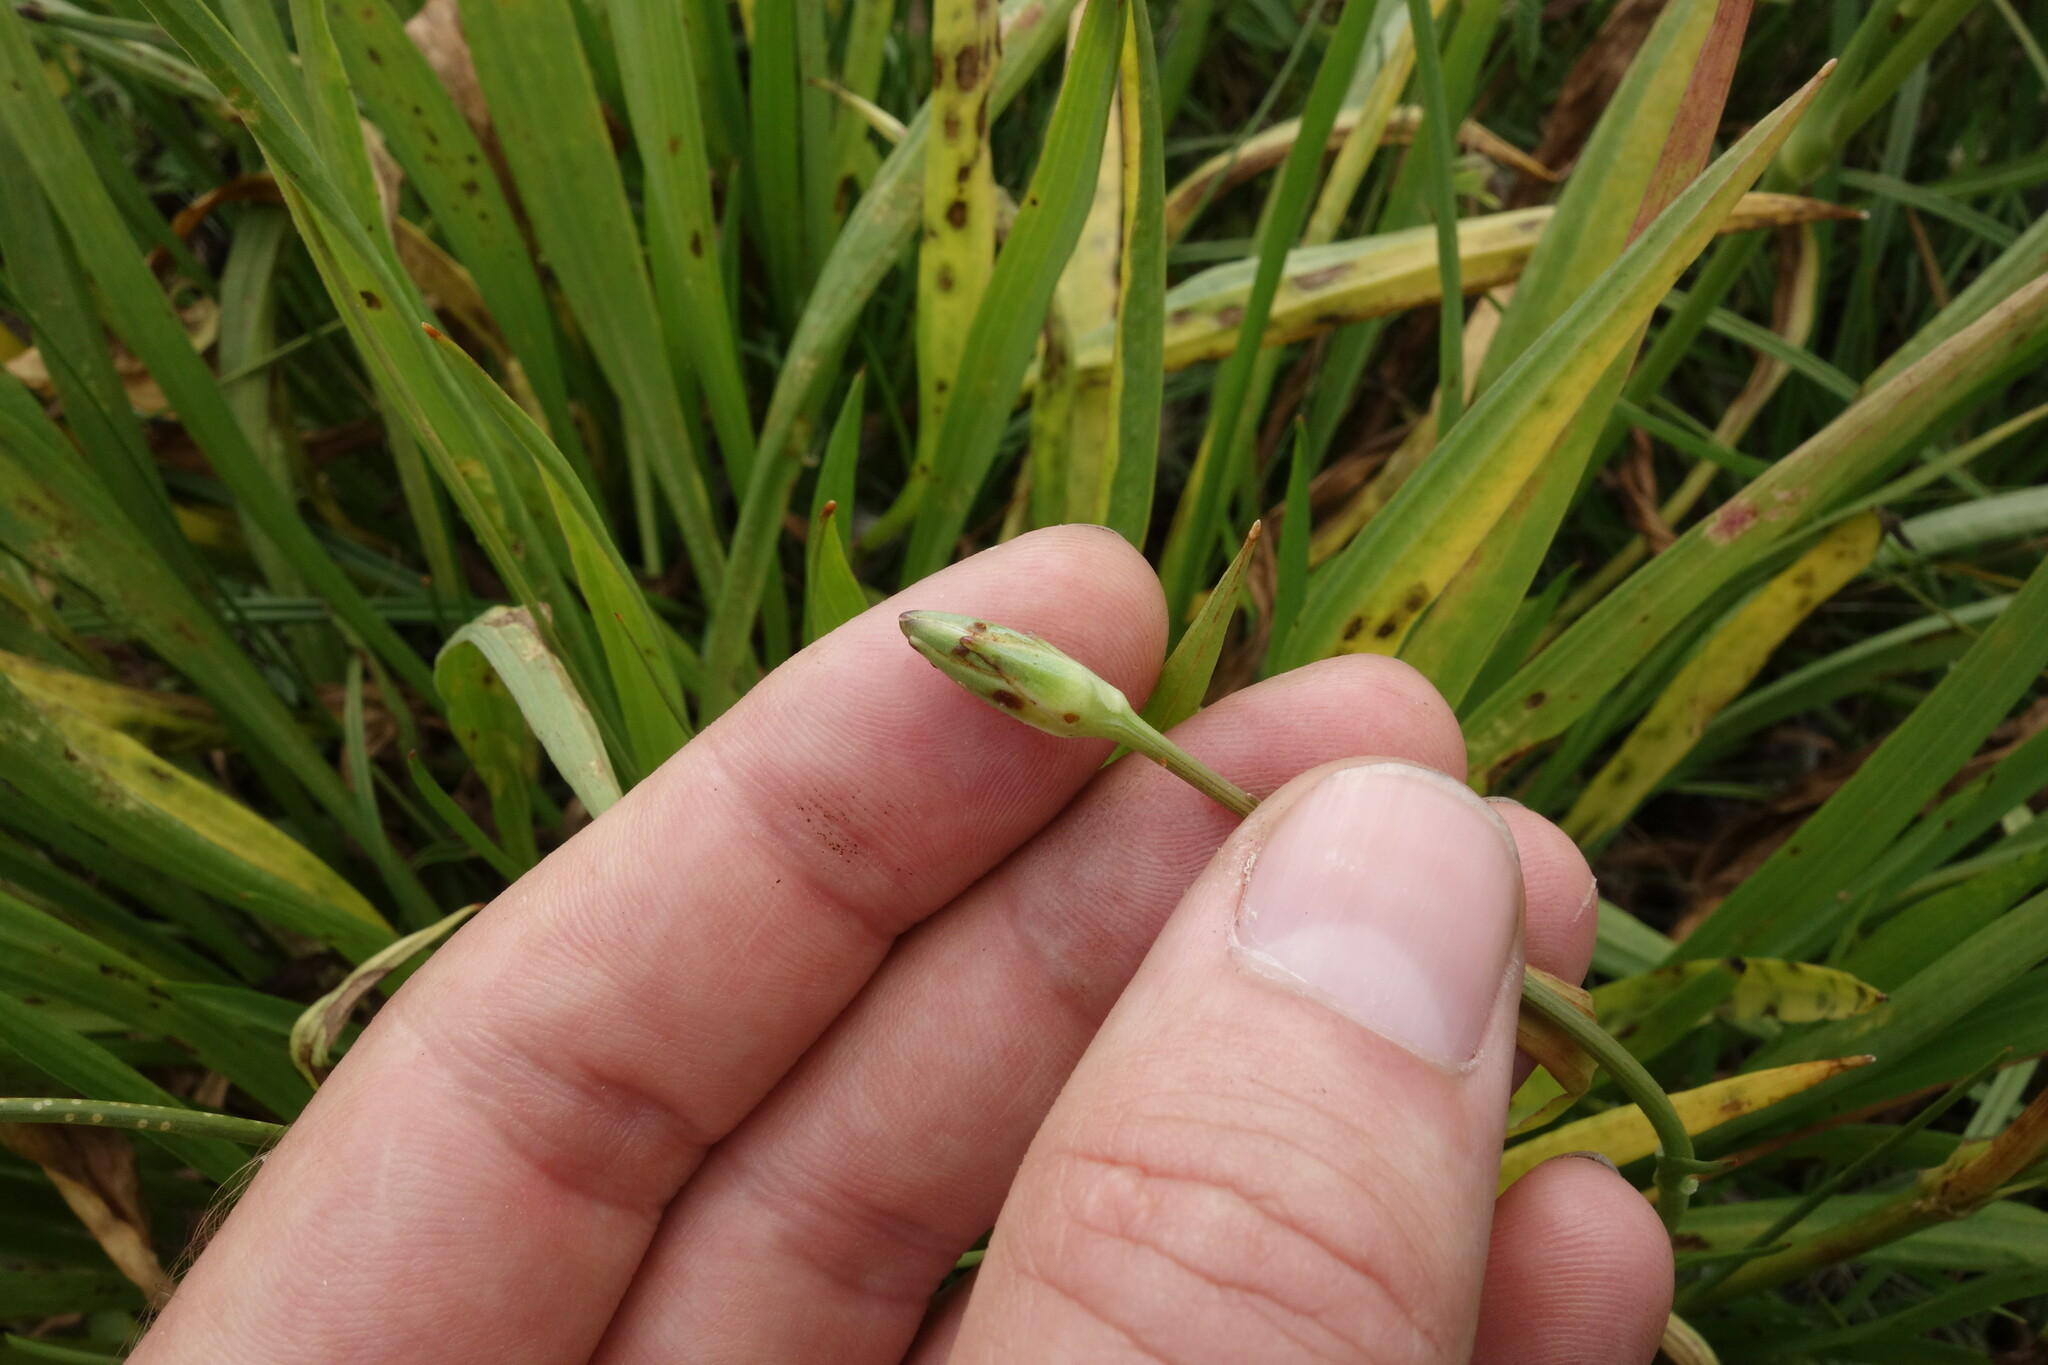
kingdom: Plantae
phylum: Tracheophyta
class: Magnoliopsida
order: Asterales
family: Asteraceae
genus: Scorzonera
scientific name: Scorzonera parviflora
